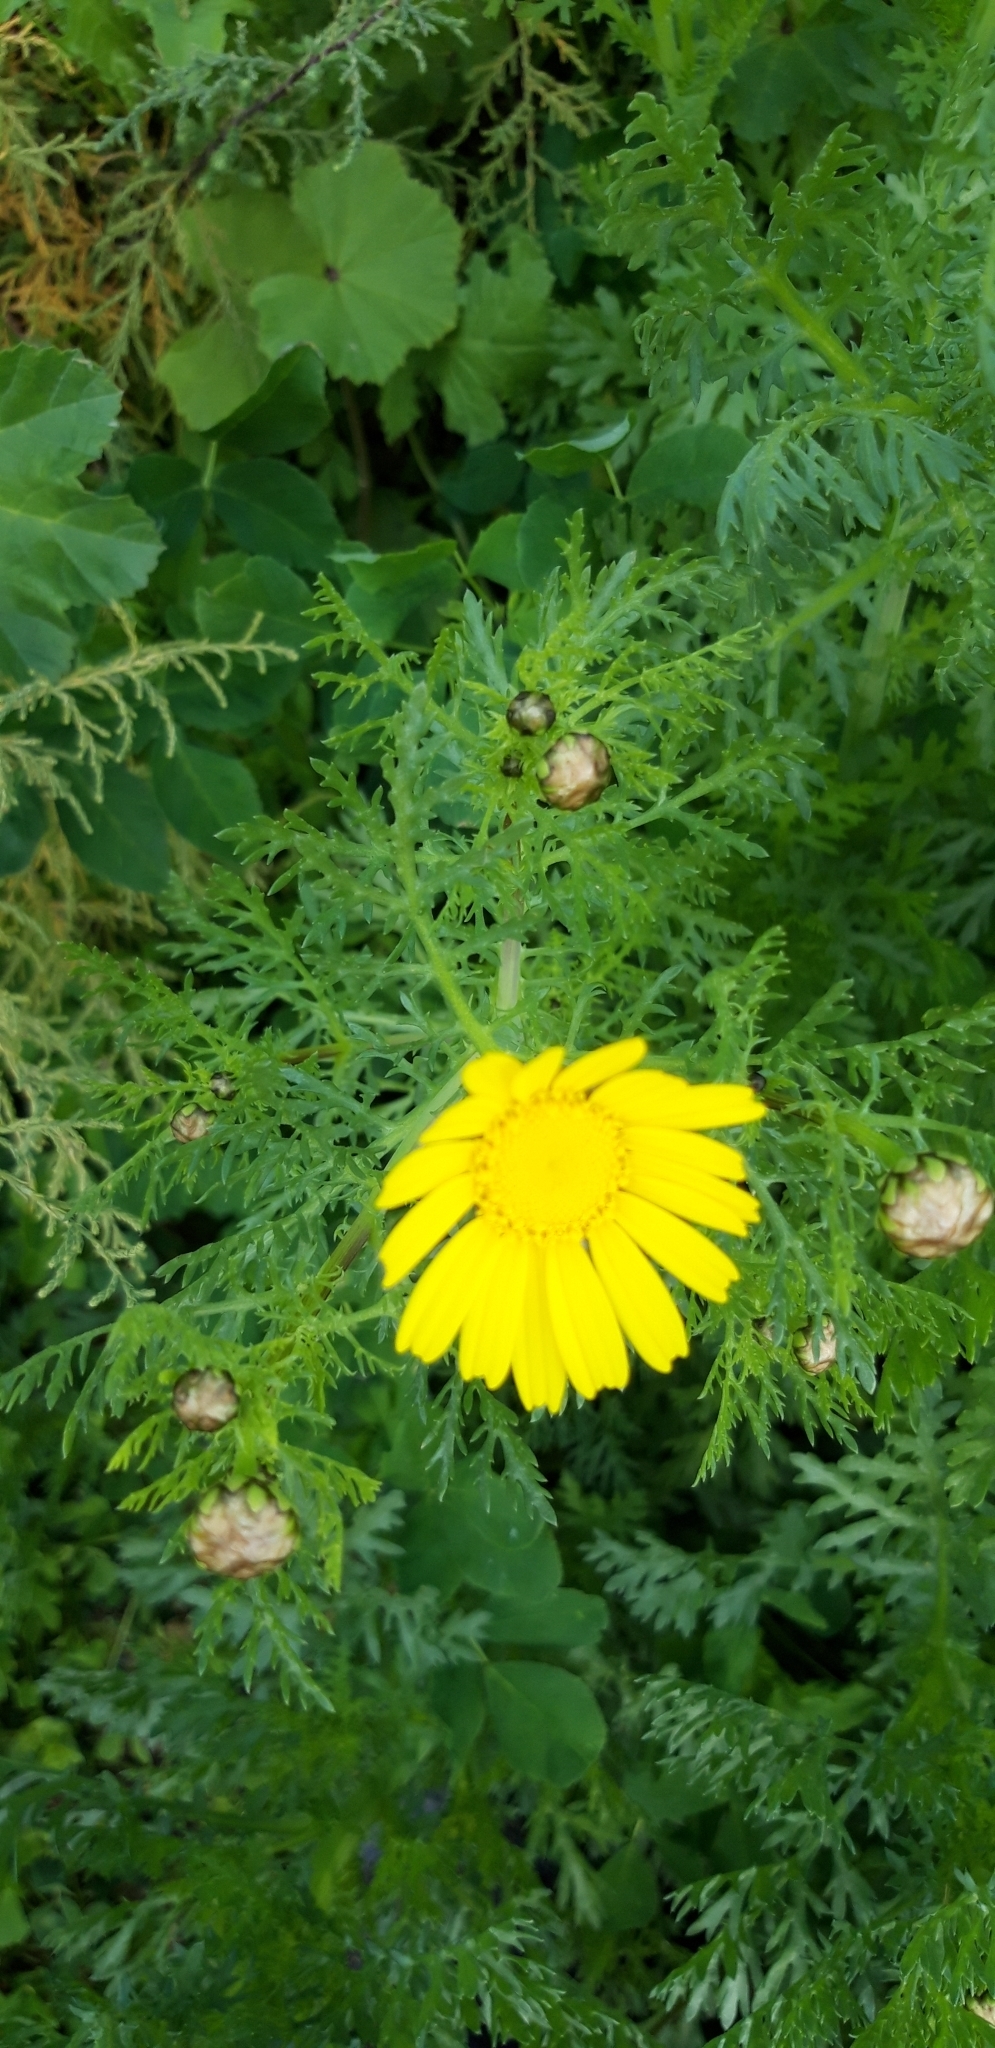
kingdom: Plantae
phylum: Tracheophyta
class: Magnoliopsida
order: Asterales
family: Asteraceae
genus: Glebionis
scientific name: Glebionis coronaria
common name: Crowndaisy
